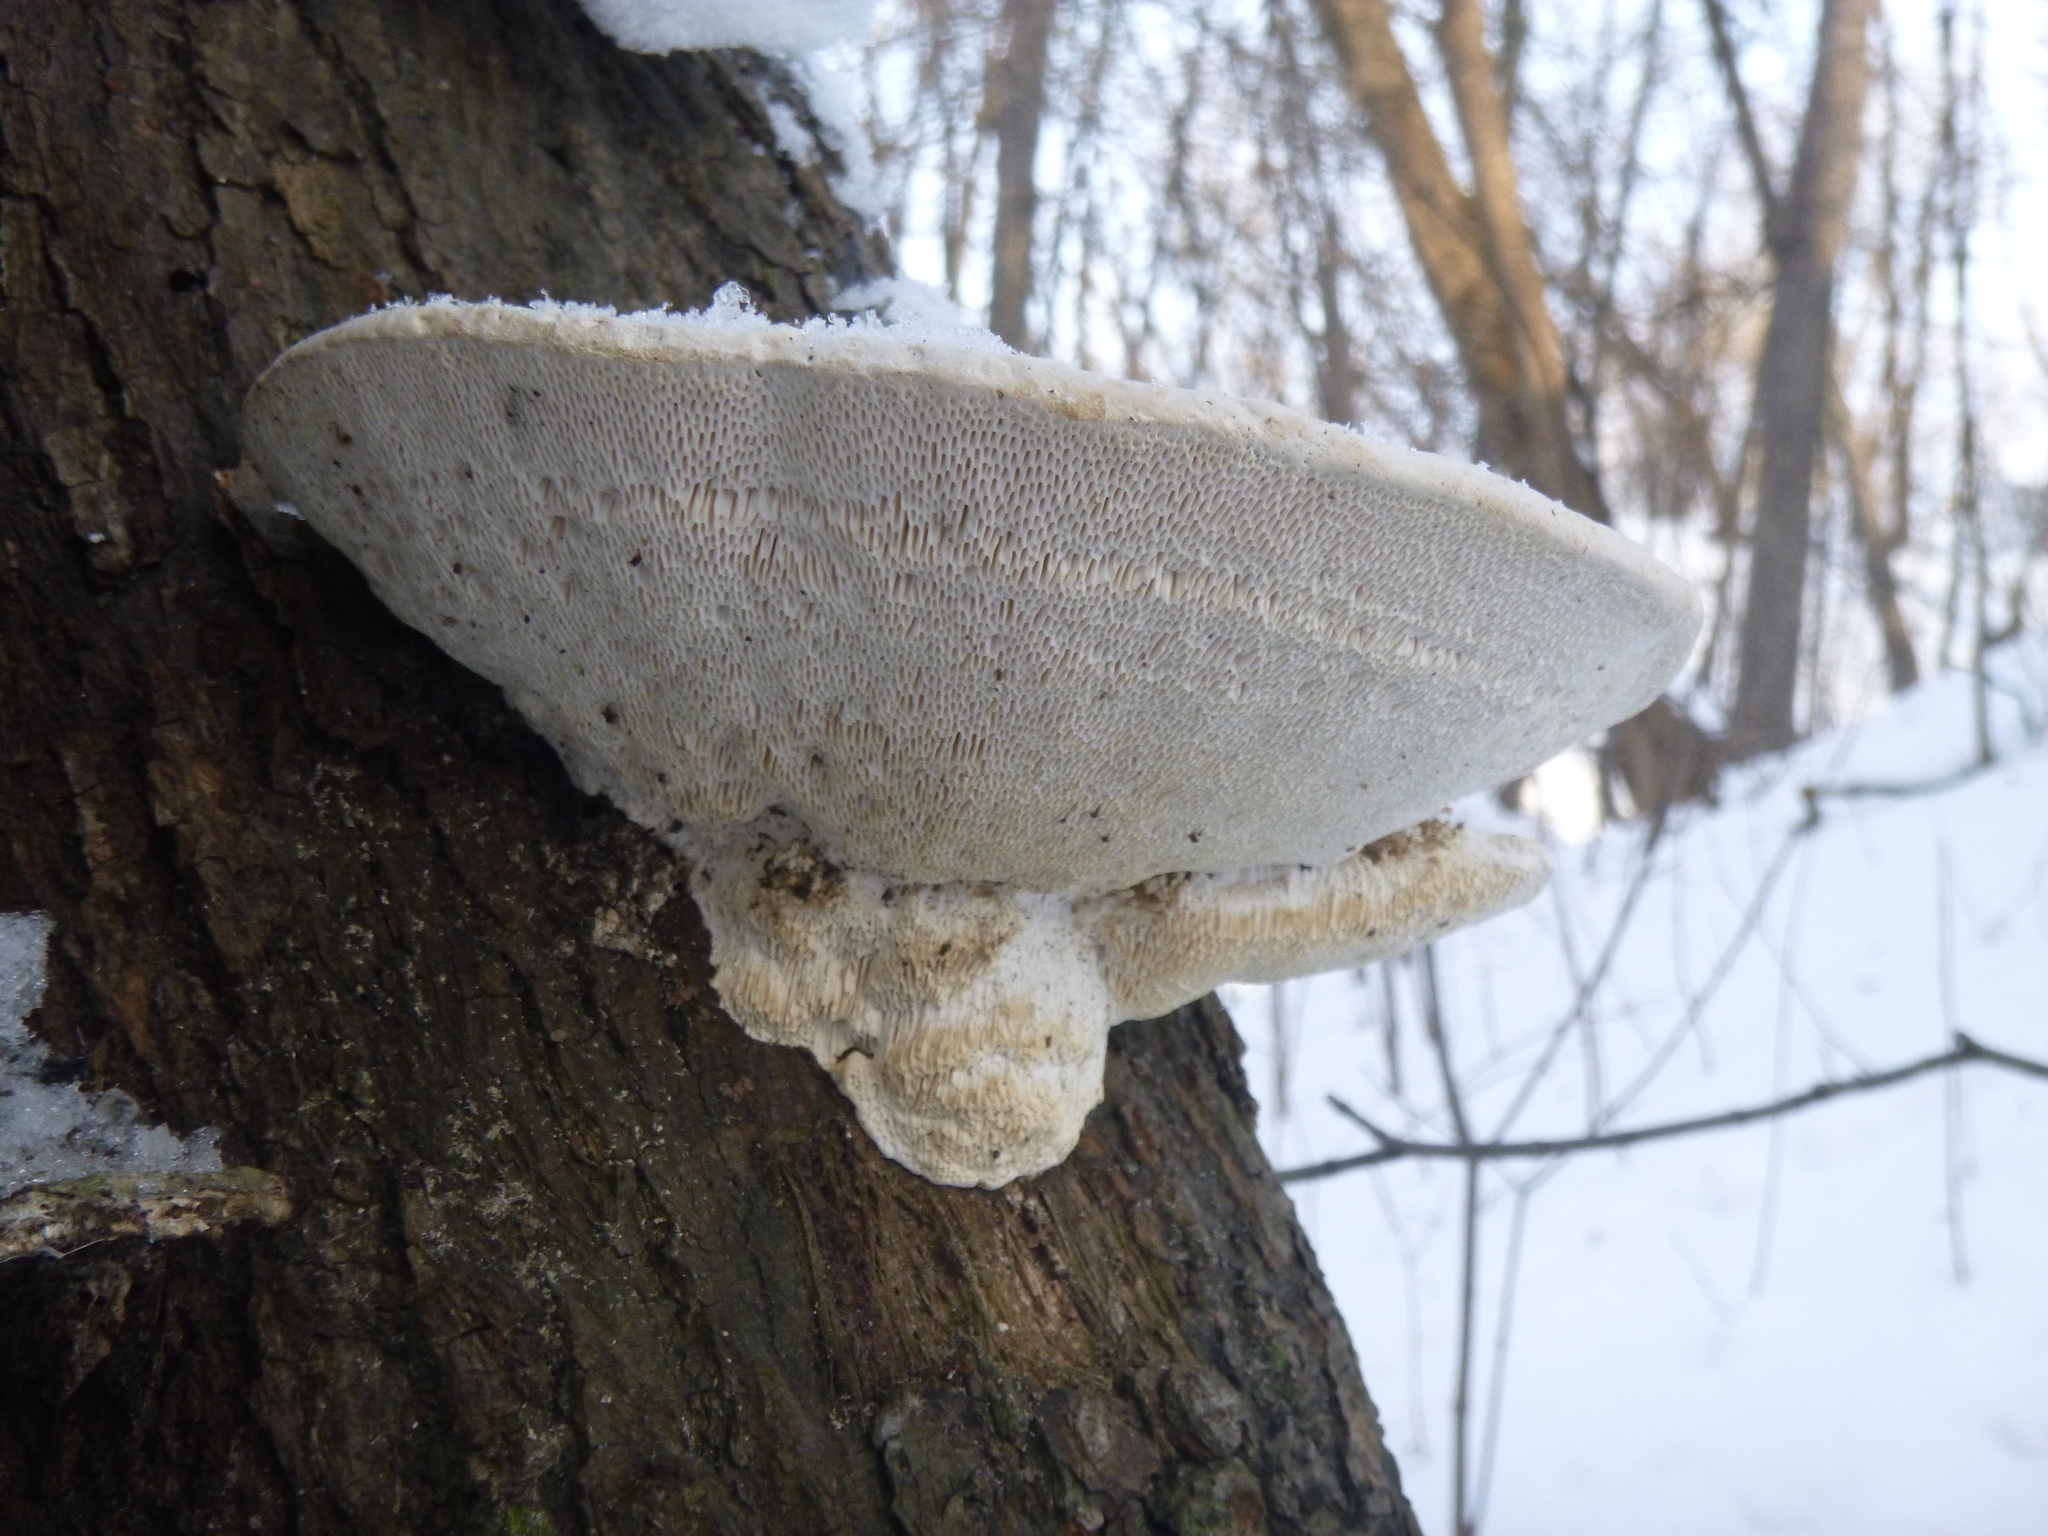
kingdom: Fungi
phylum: Basidiomycota
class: Agaricomycetes
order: Polyporales
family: Polyporaceae
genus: Trametes
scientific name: Trametes gibbosa
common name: Lumpy bracket
